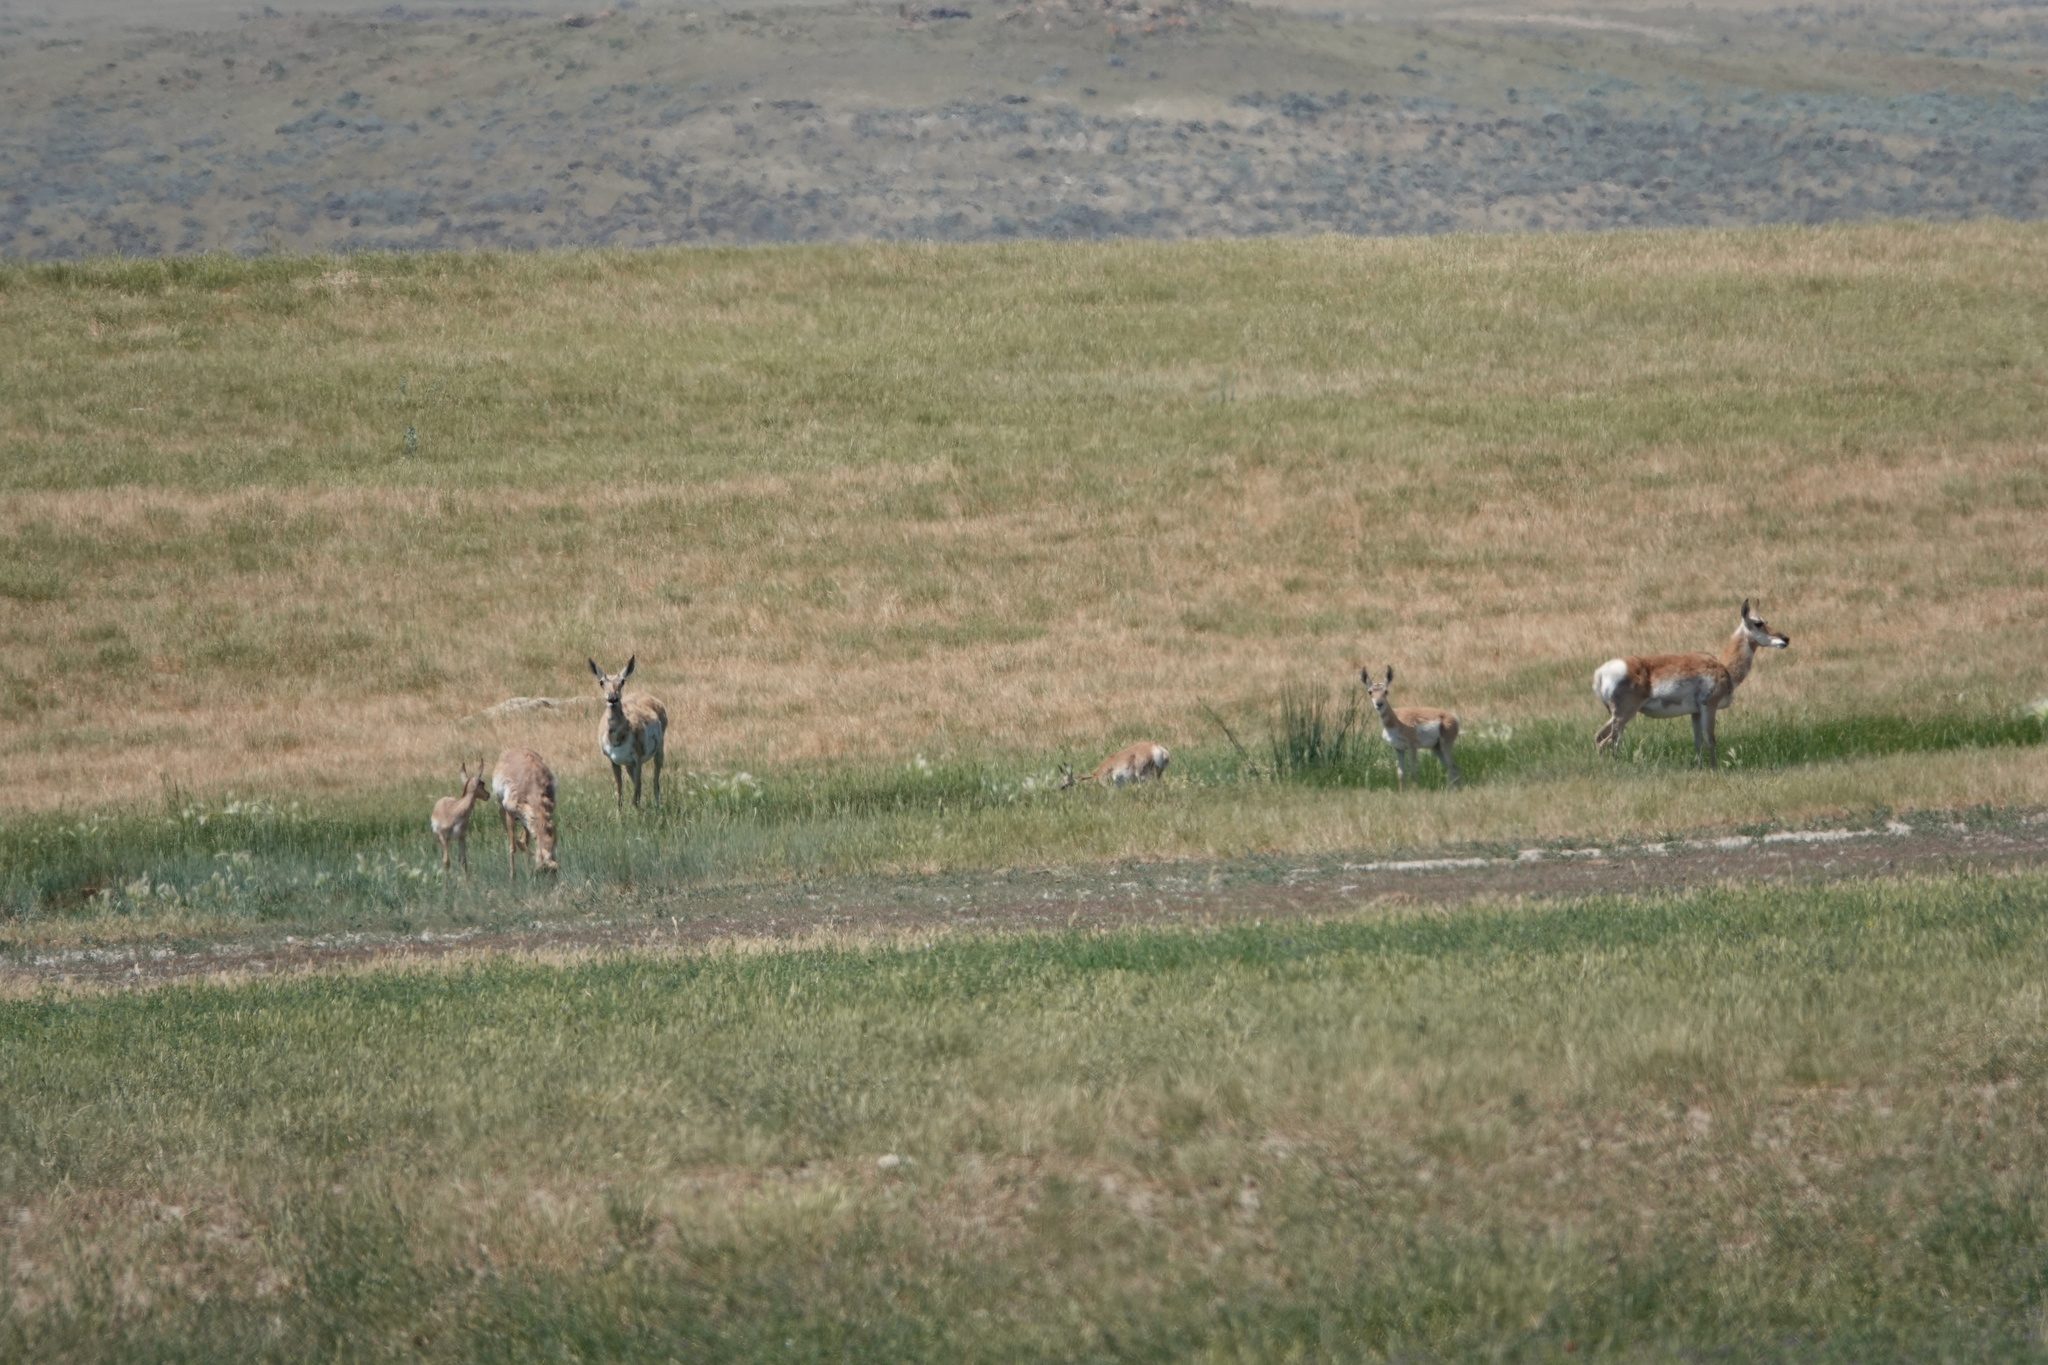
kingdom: Animalia
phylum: Chordata
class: Mammalia
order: Artiodactyla
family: Antilocapridae
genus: Antilocapra
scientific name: Antilocapra americana
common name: Pronghorn
